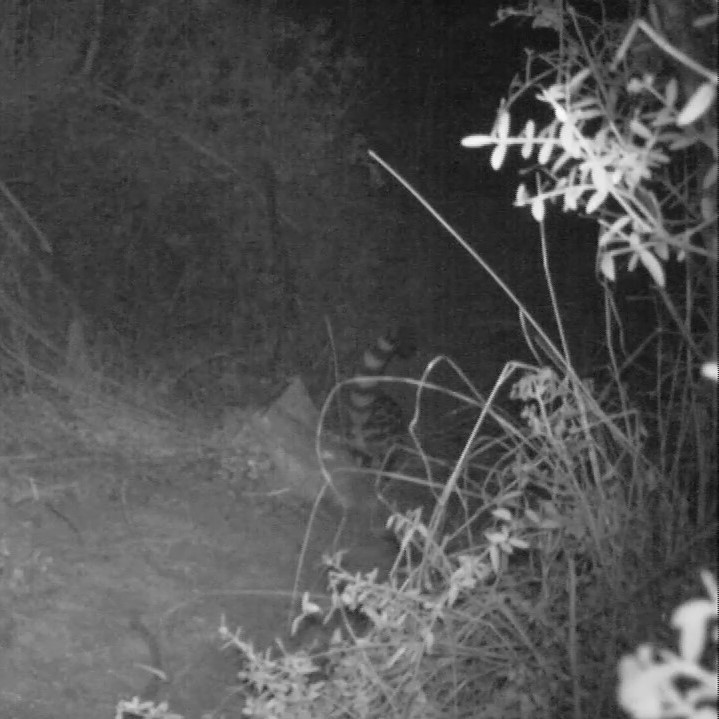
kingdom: Animalia
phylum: Chordata
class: Mammalia
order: Carnivora
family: Viverridae
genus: Genetta
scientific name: Genetta tigrina
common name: Cape genet
